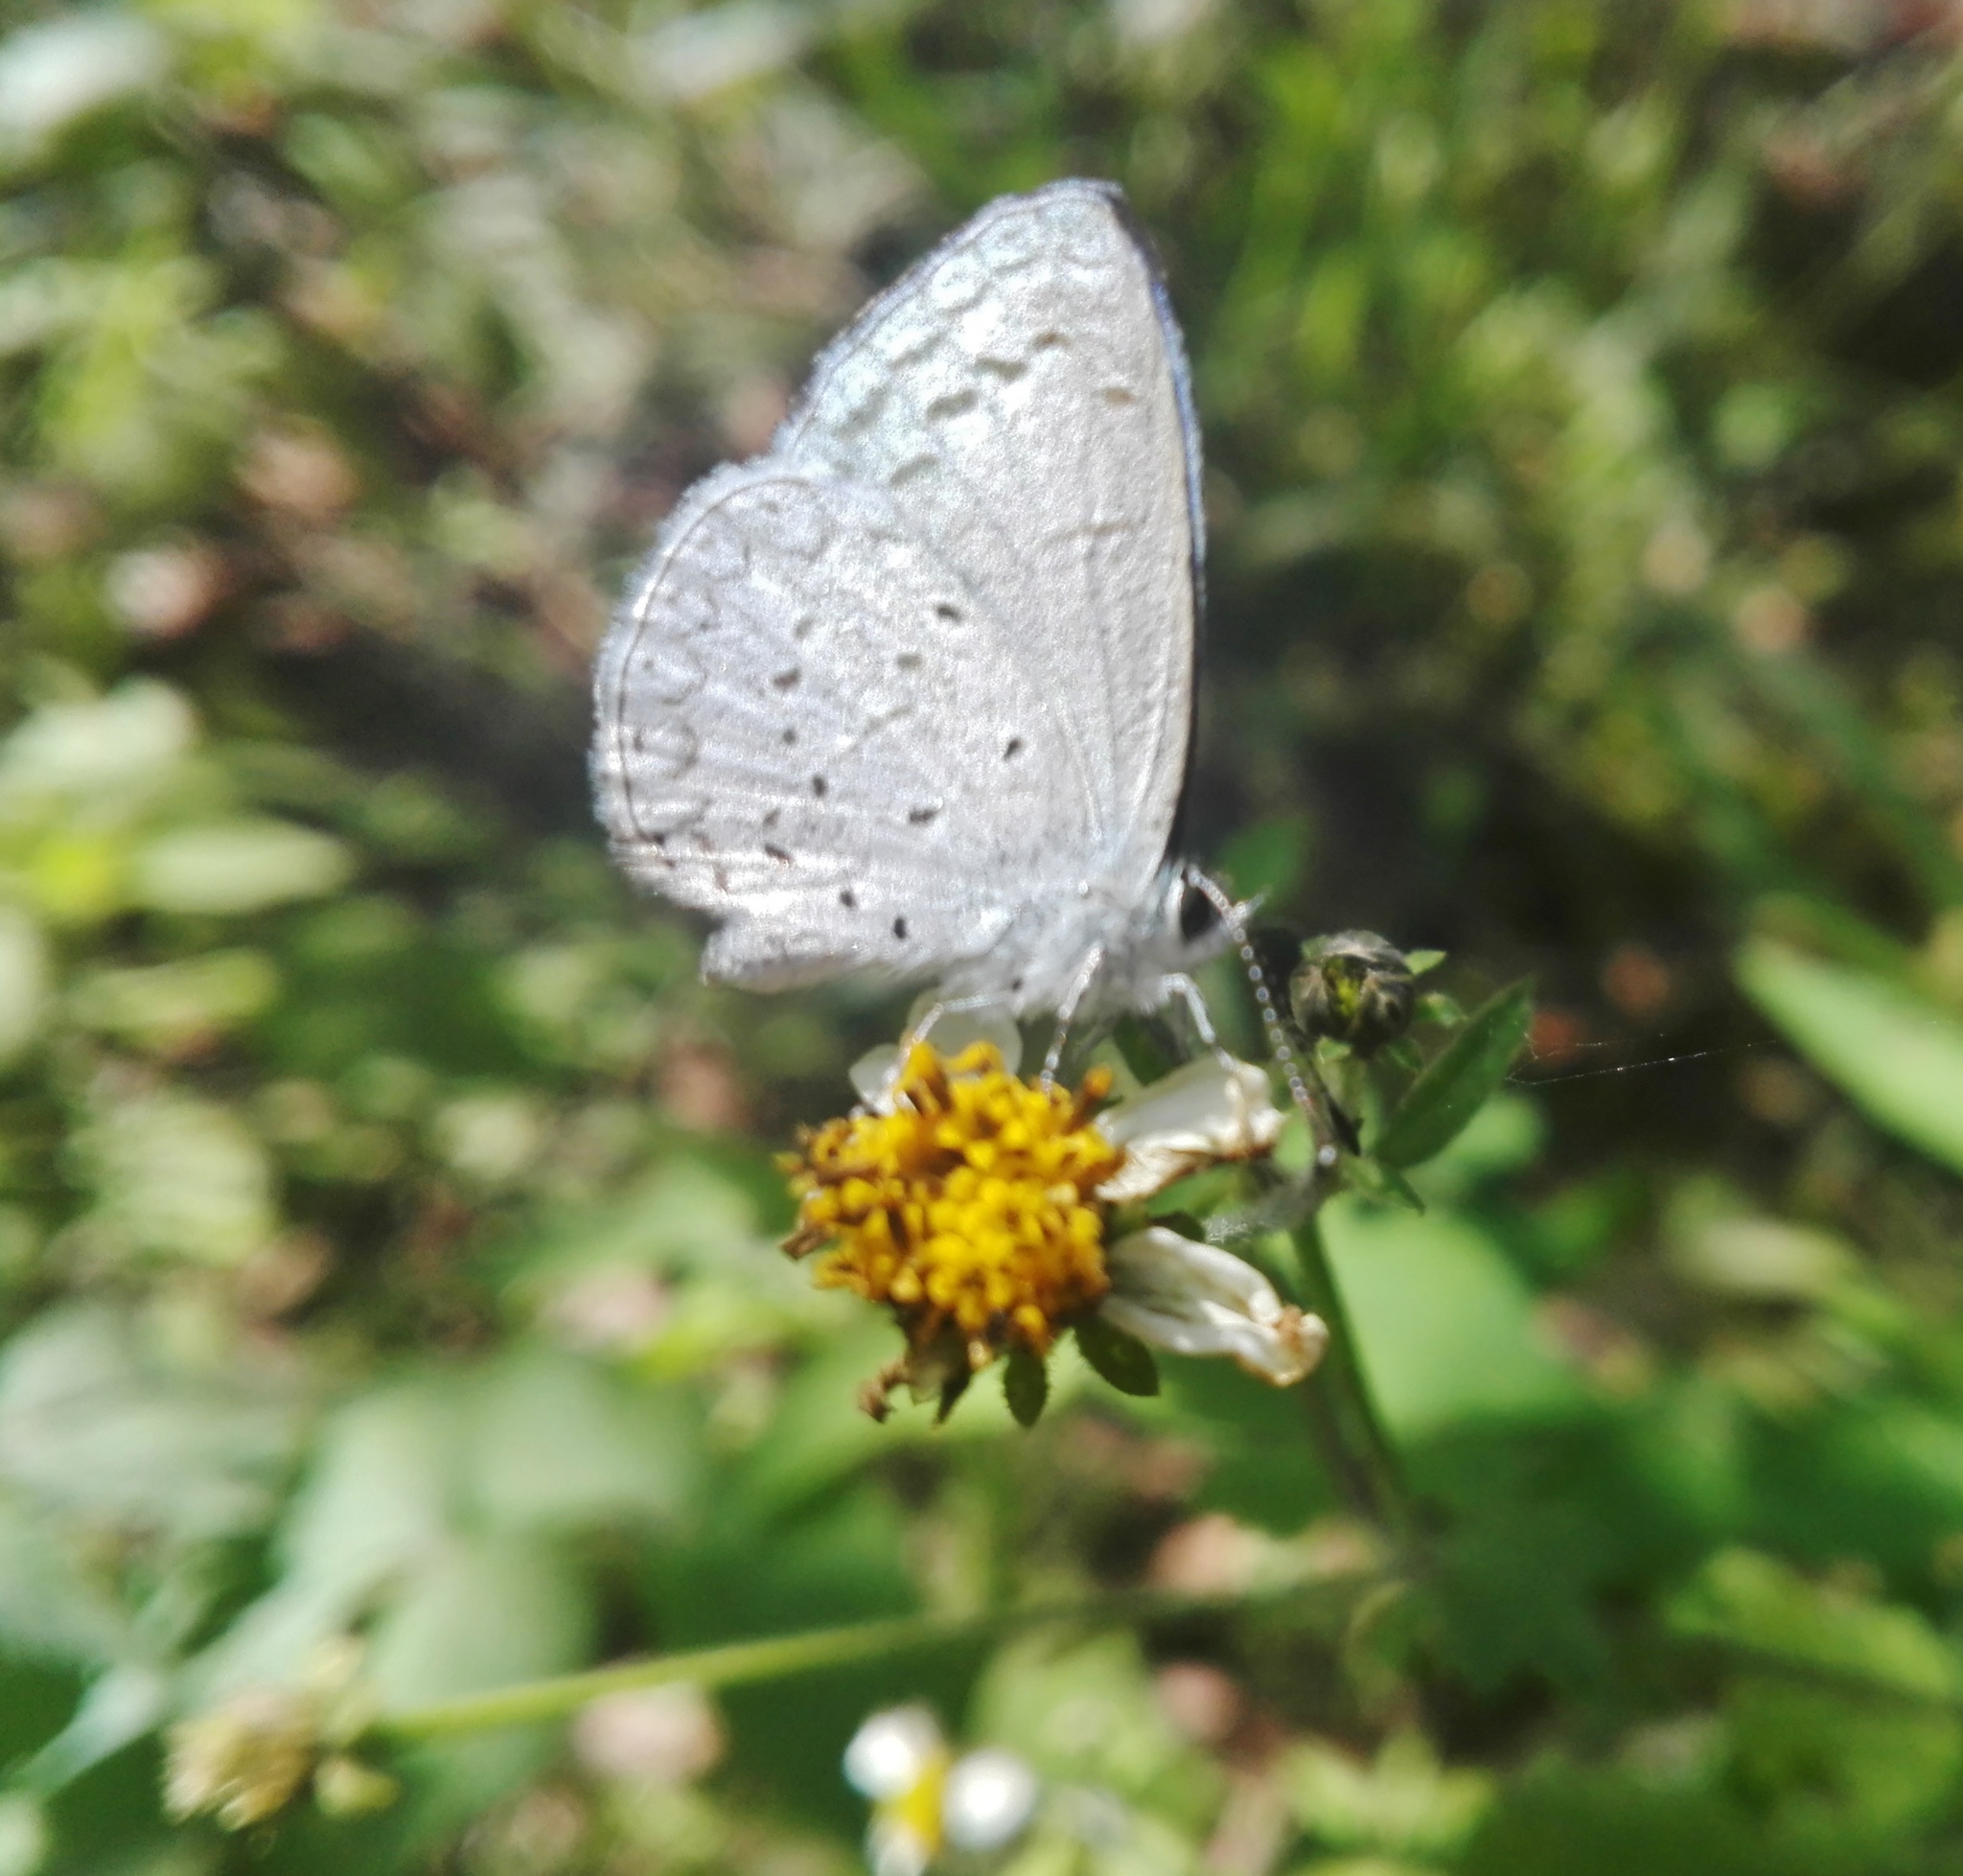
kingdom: Animalia
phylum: Arthropoda
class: Insecta
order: Lepidoptera
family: Lycaenidae
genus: Celastrina
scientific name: Celastrina ladon
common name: Spring azure
